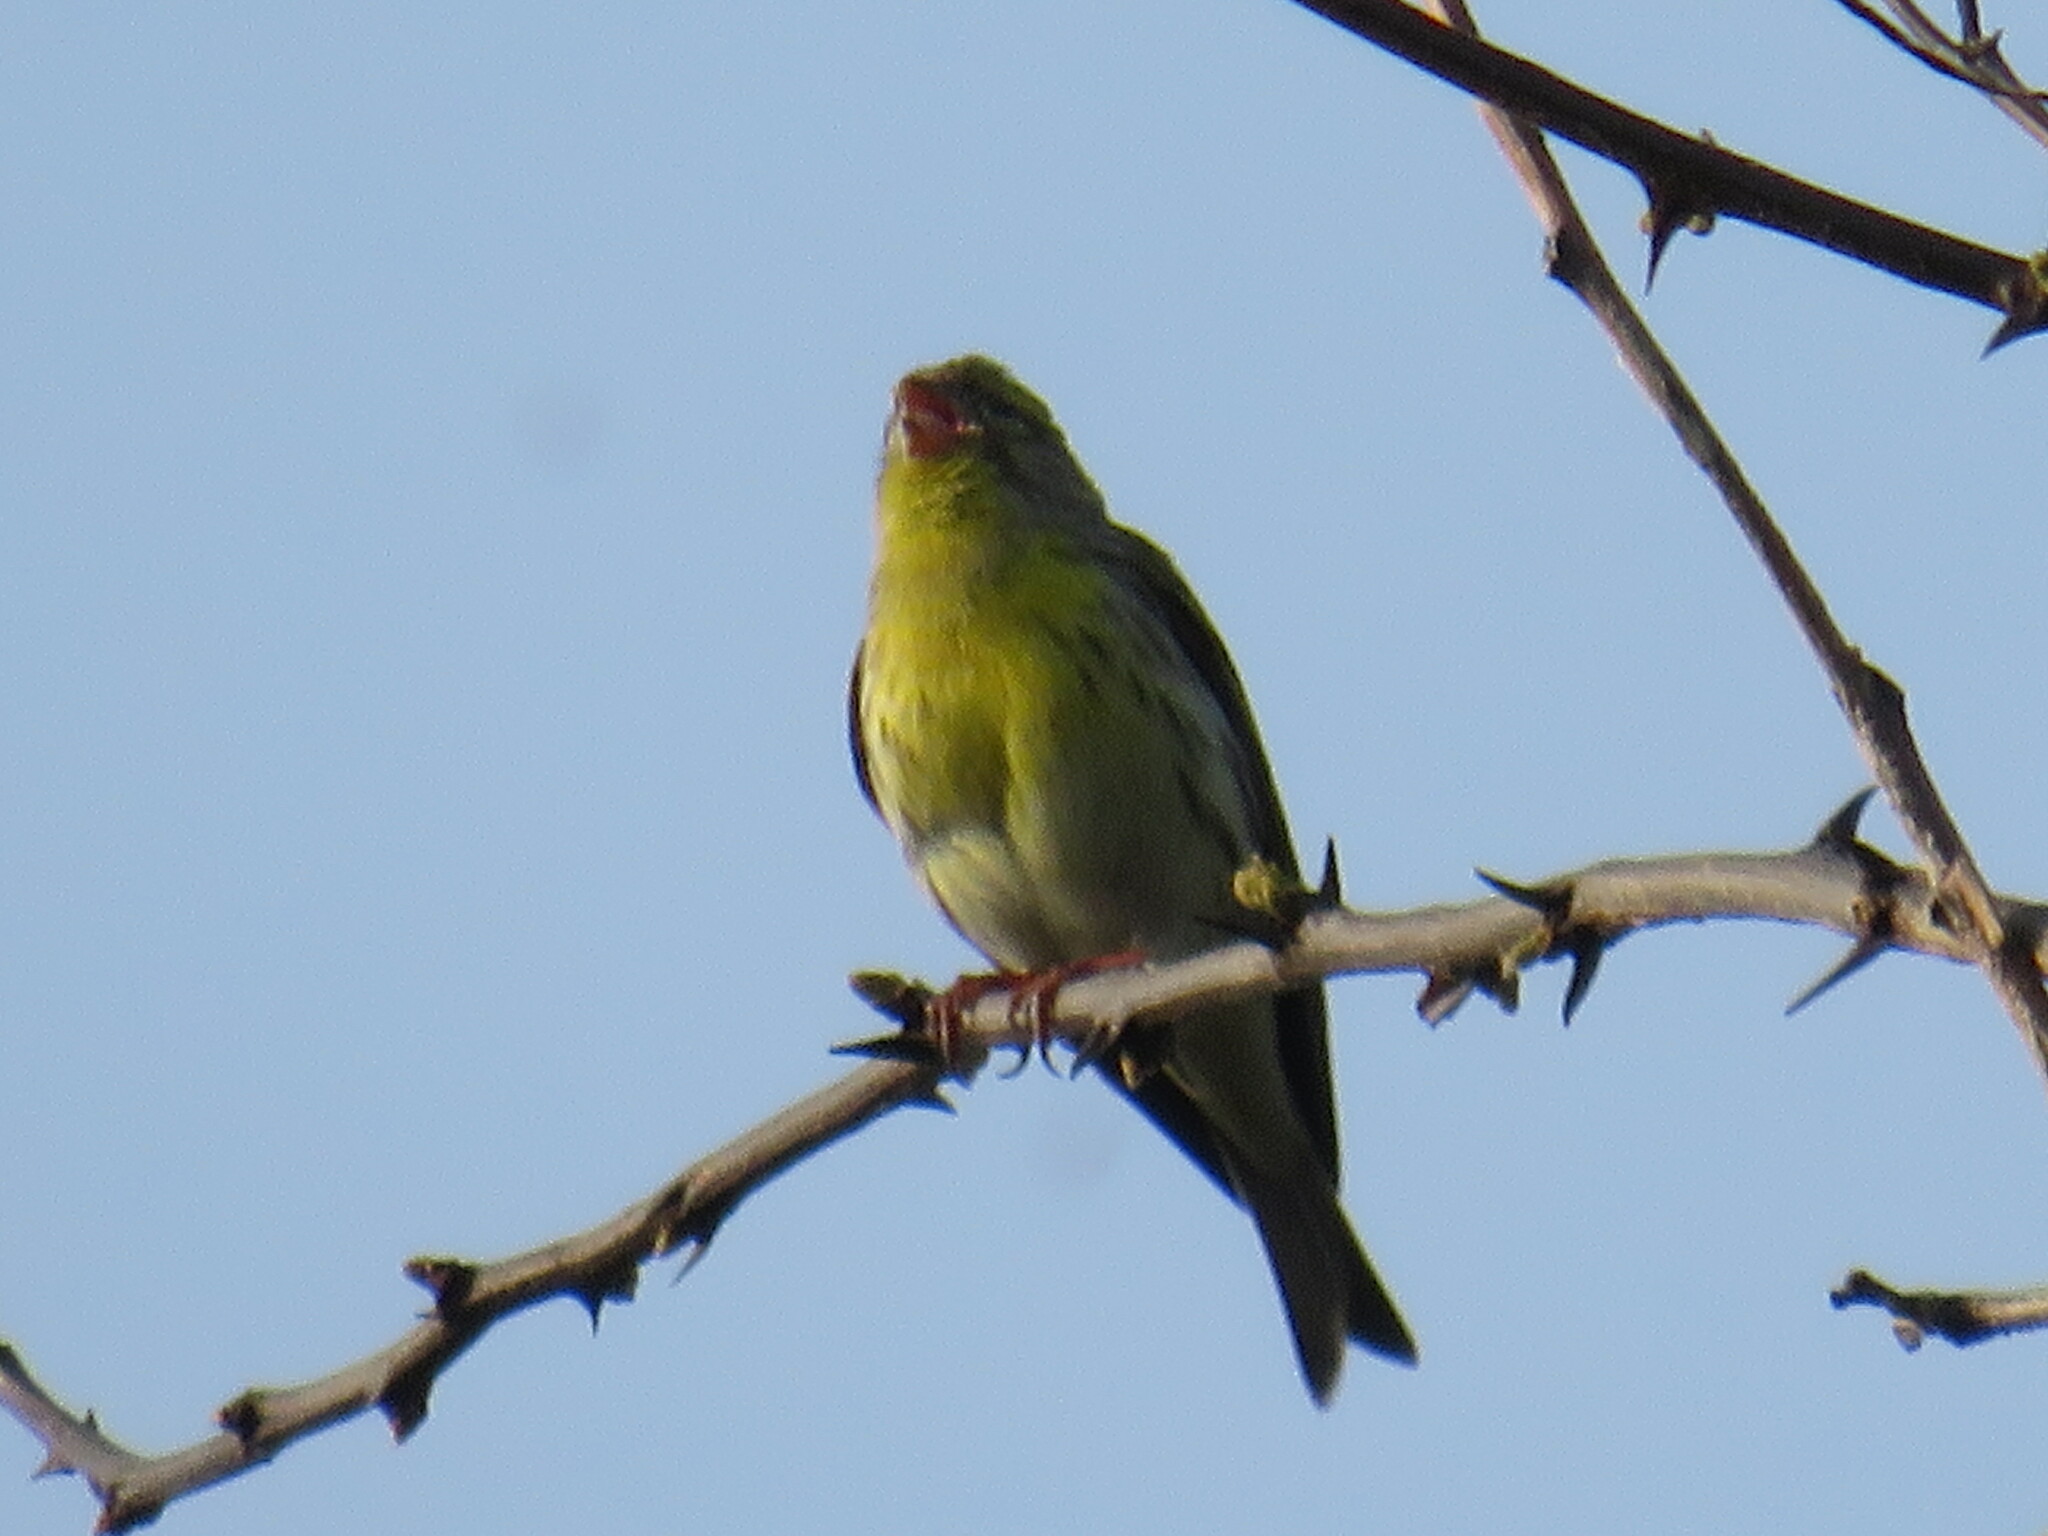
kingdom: Animalia
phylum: Chordata
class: Aves
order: Passeriformes
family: Fringillidae
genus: Serinus
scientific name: Serinus serinus
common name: European serin
